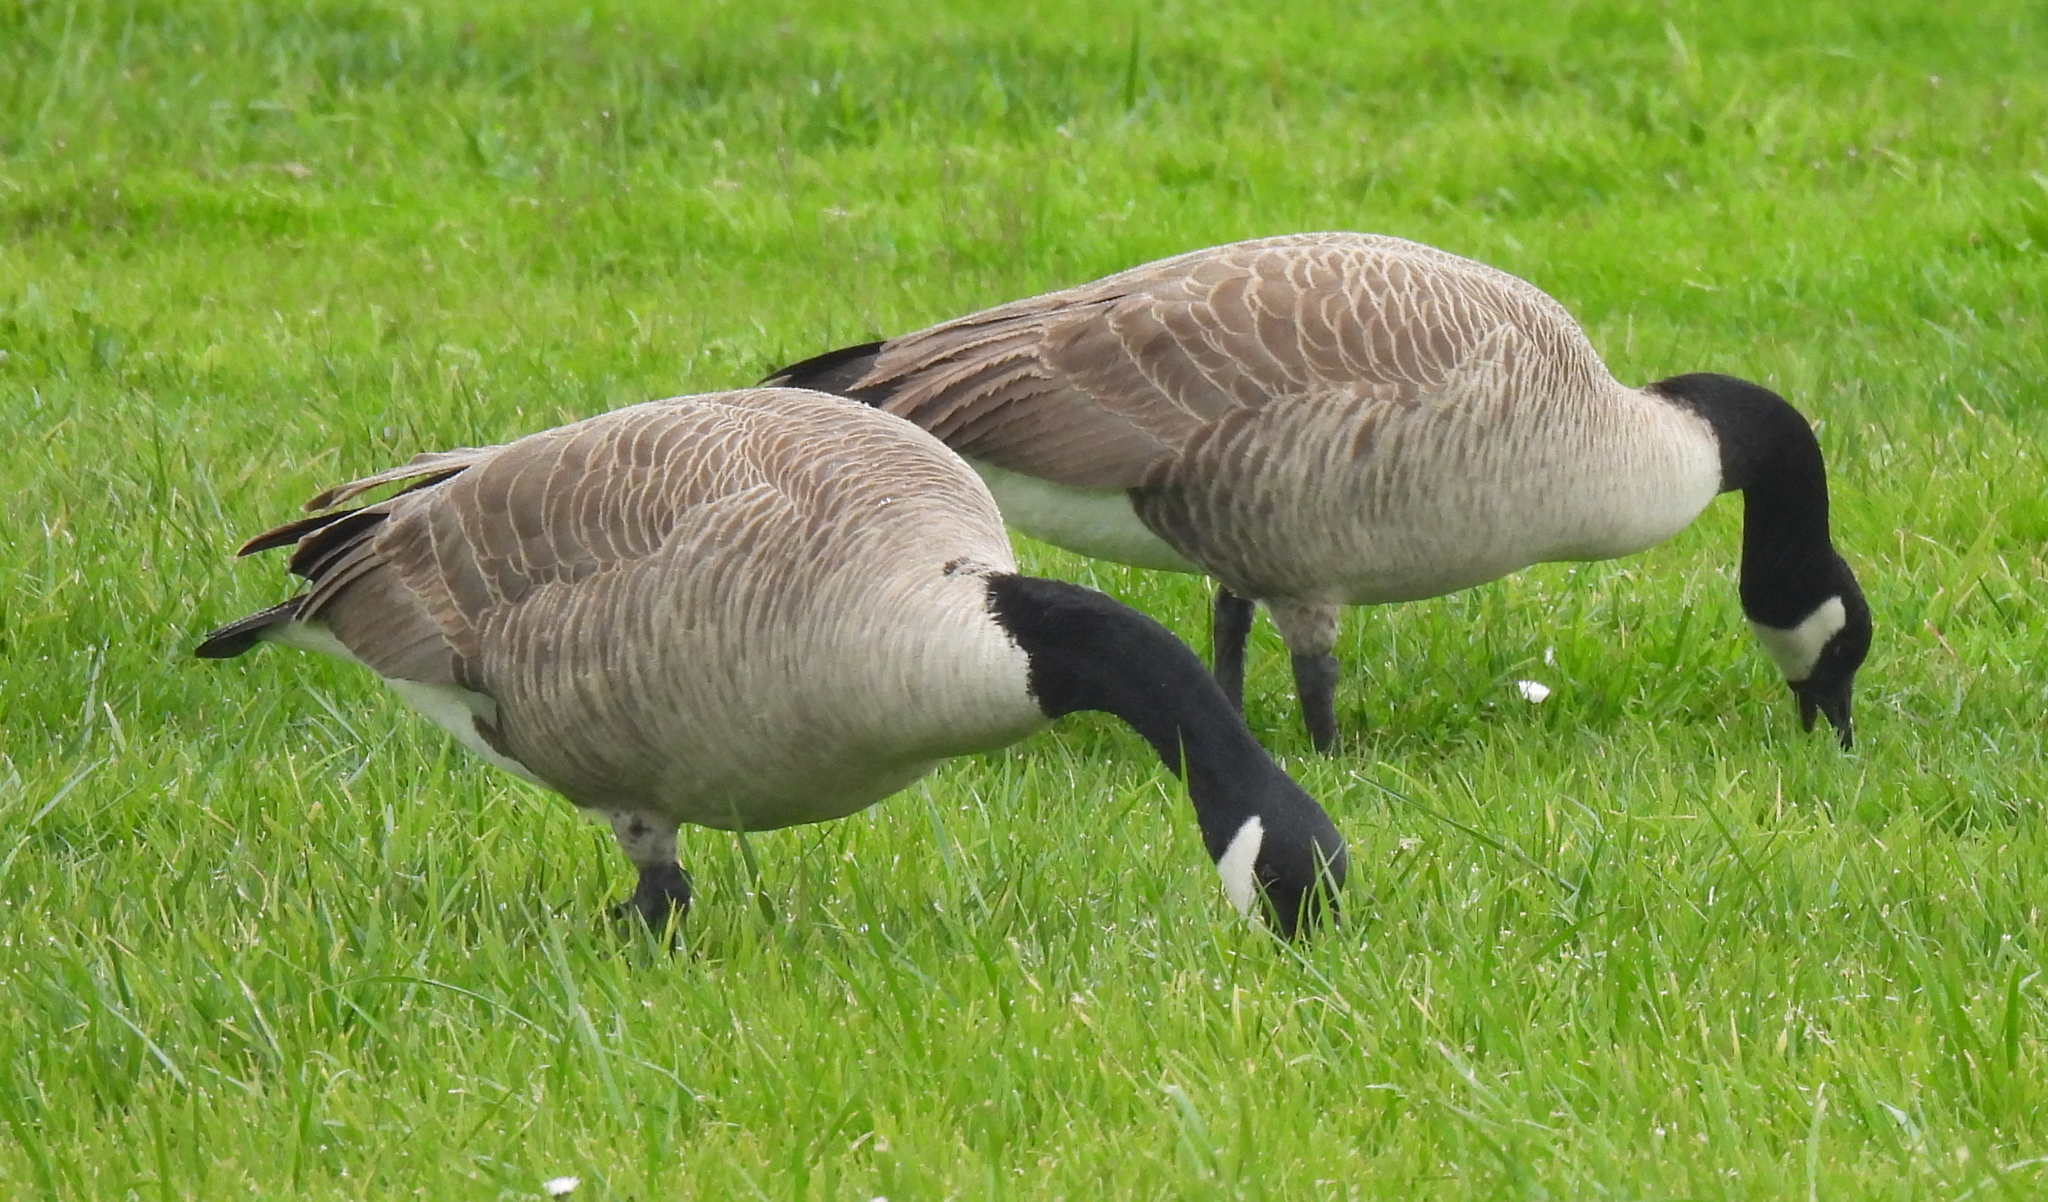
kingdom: Animalia
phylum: Chordata
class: Aves
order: Anseriformes
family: Anatidae
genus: Branta
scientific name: Branta canadensis
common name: Canada goose
